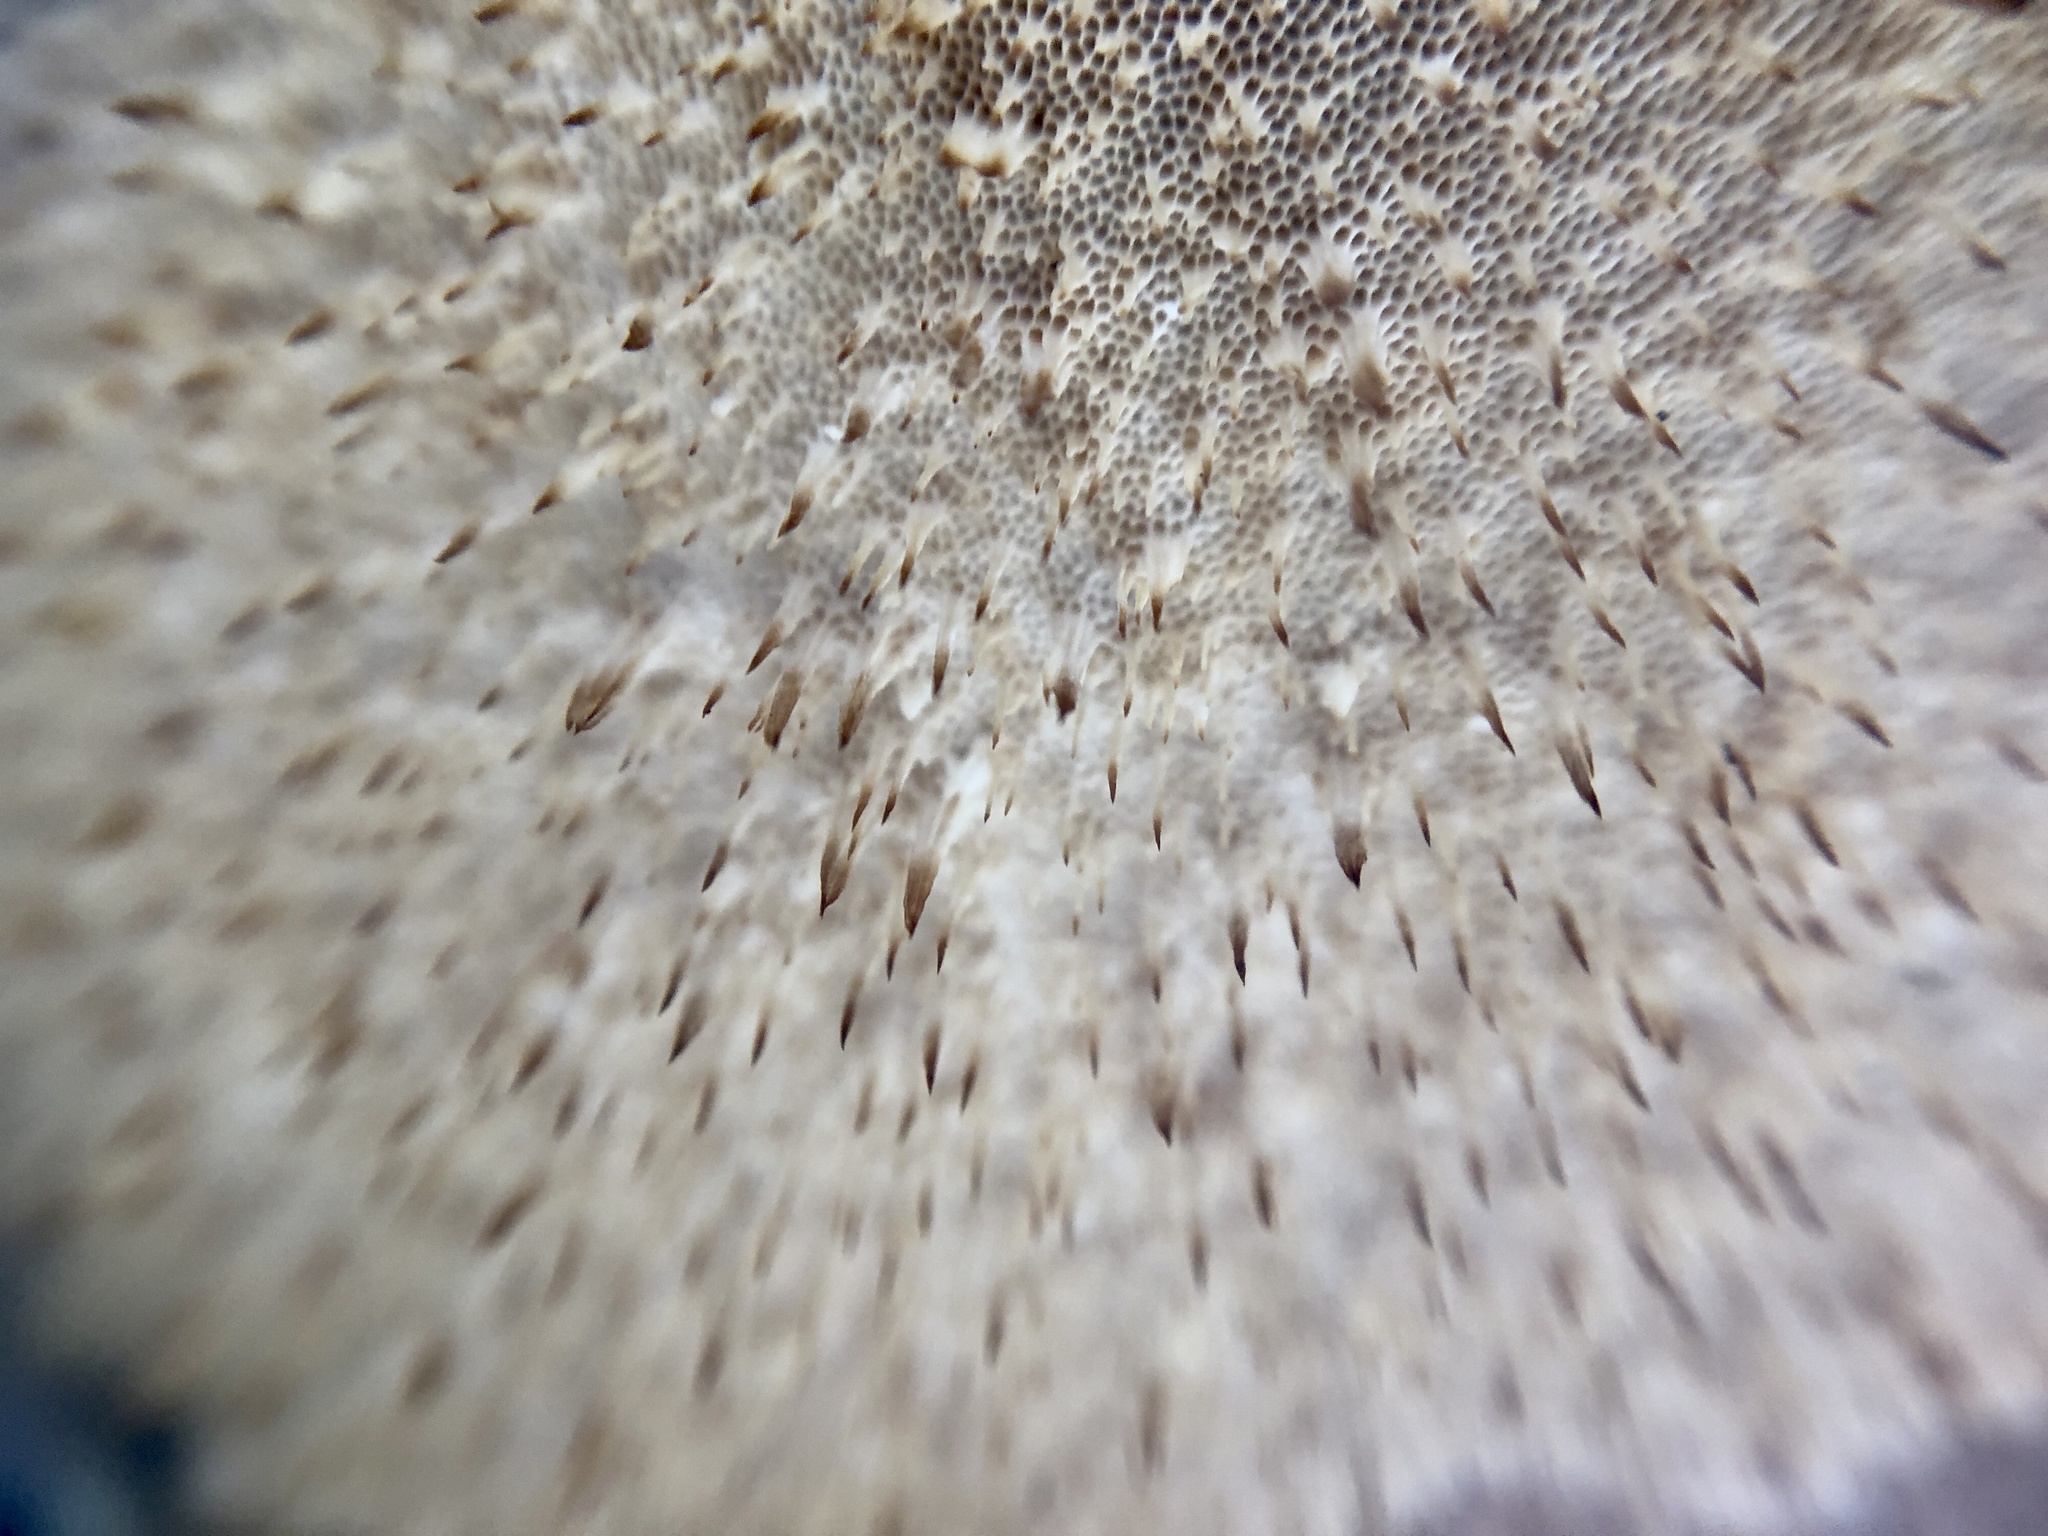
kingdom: Fungi
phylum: Basidiomycota
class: Agaricomycetes
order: Polyporales
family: Fomitopsidaceae
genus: Fomitopsis
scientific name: Fomitopsis betulina
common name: Birch polypore
